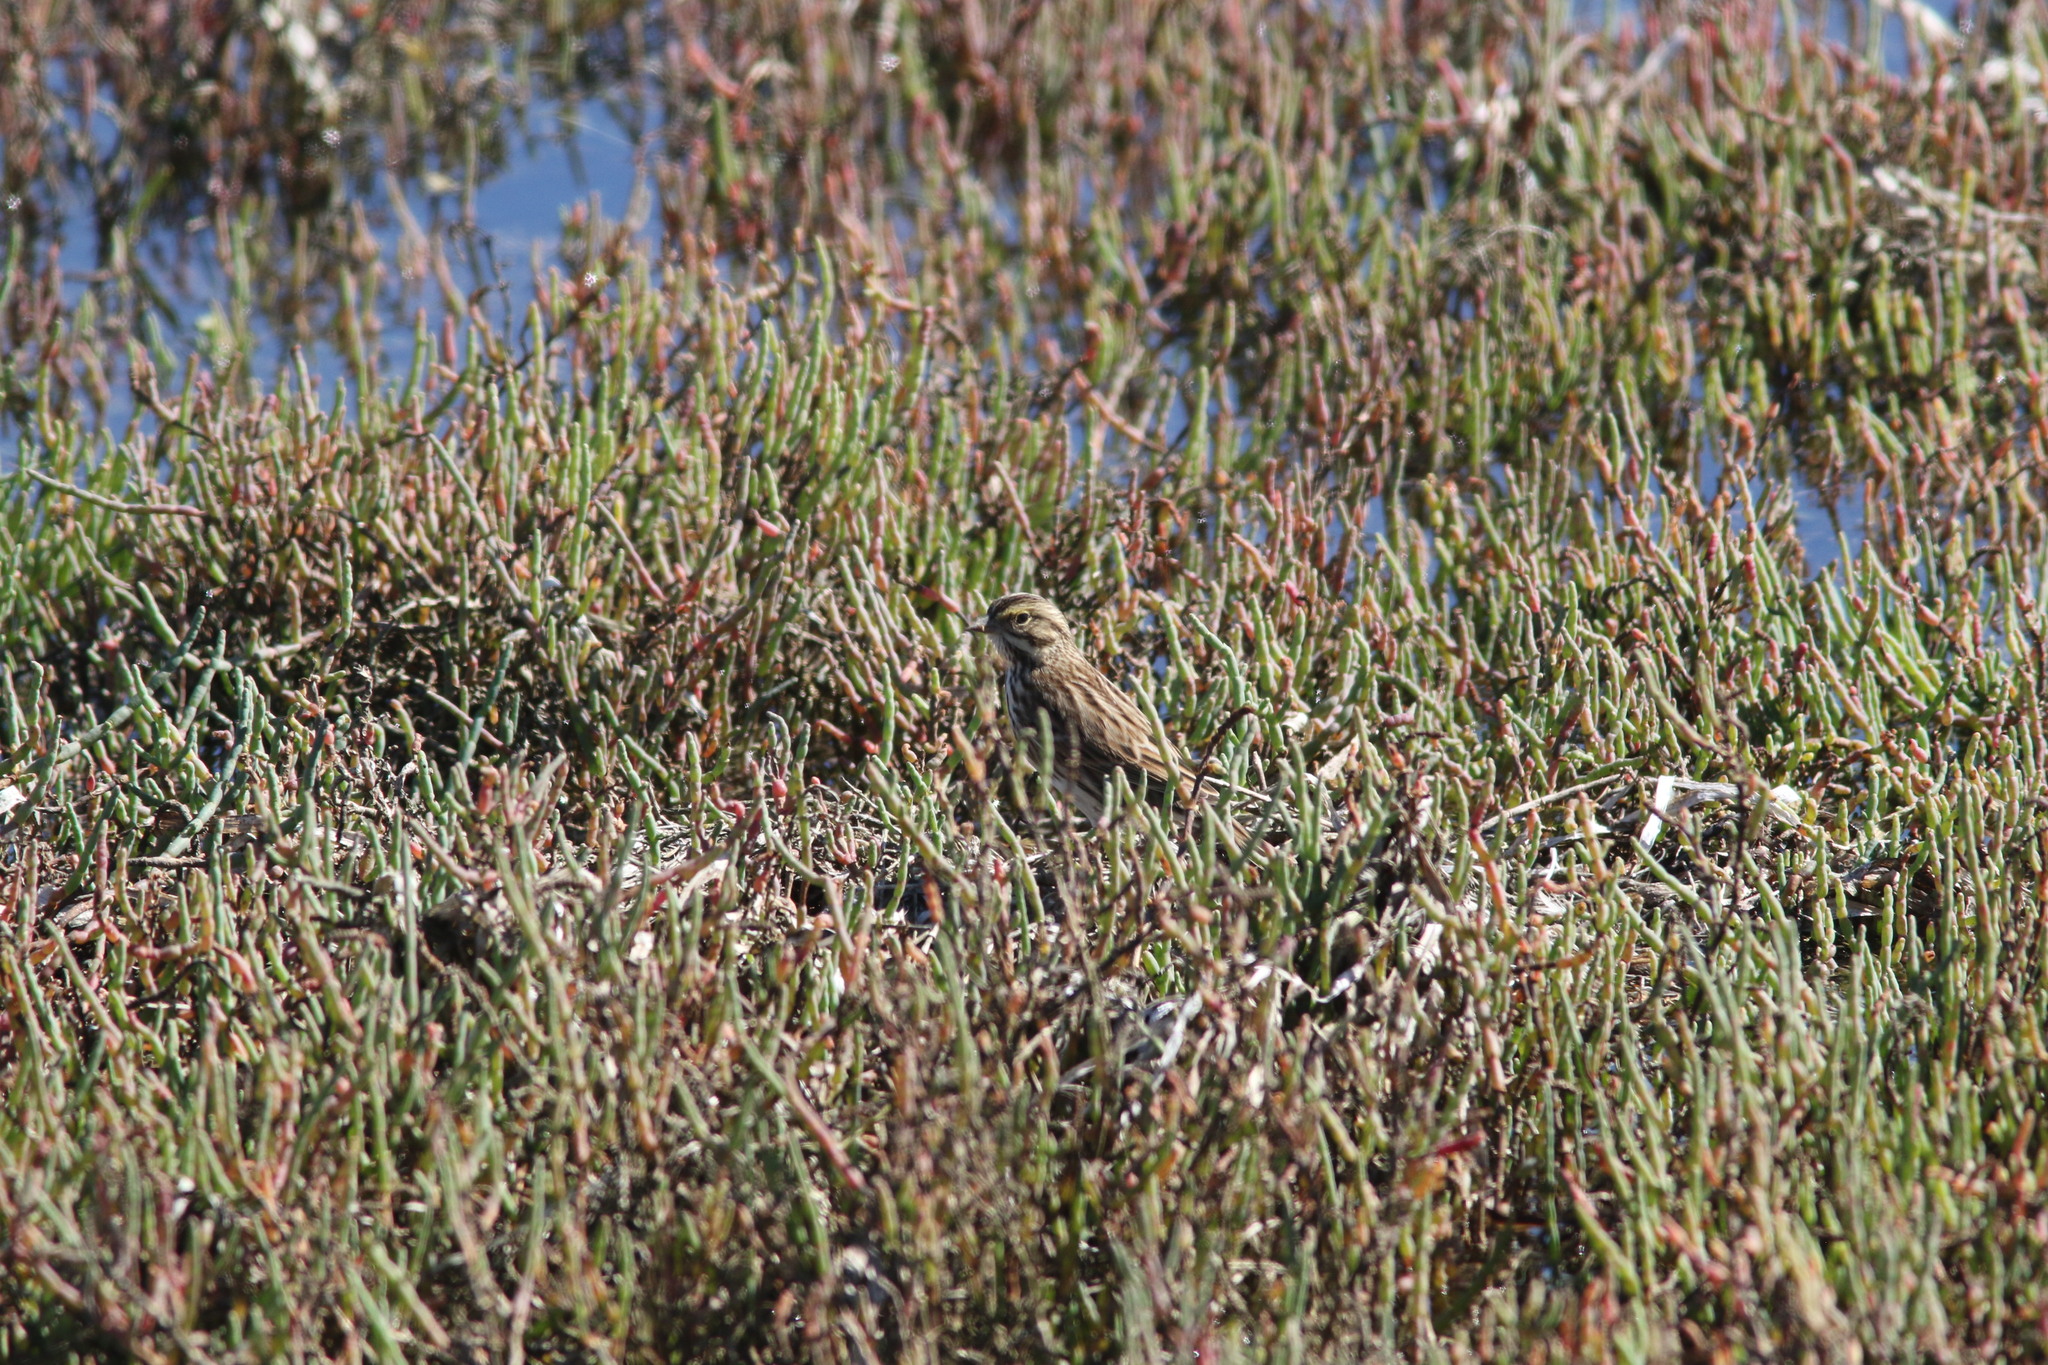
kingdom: Animalia
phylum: Chordata
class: Aves
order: Passeriformes
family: Passerellidae
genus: Passerculus
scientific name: Passerculus sandwichensis
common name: Savannah sparrow
